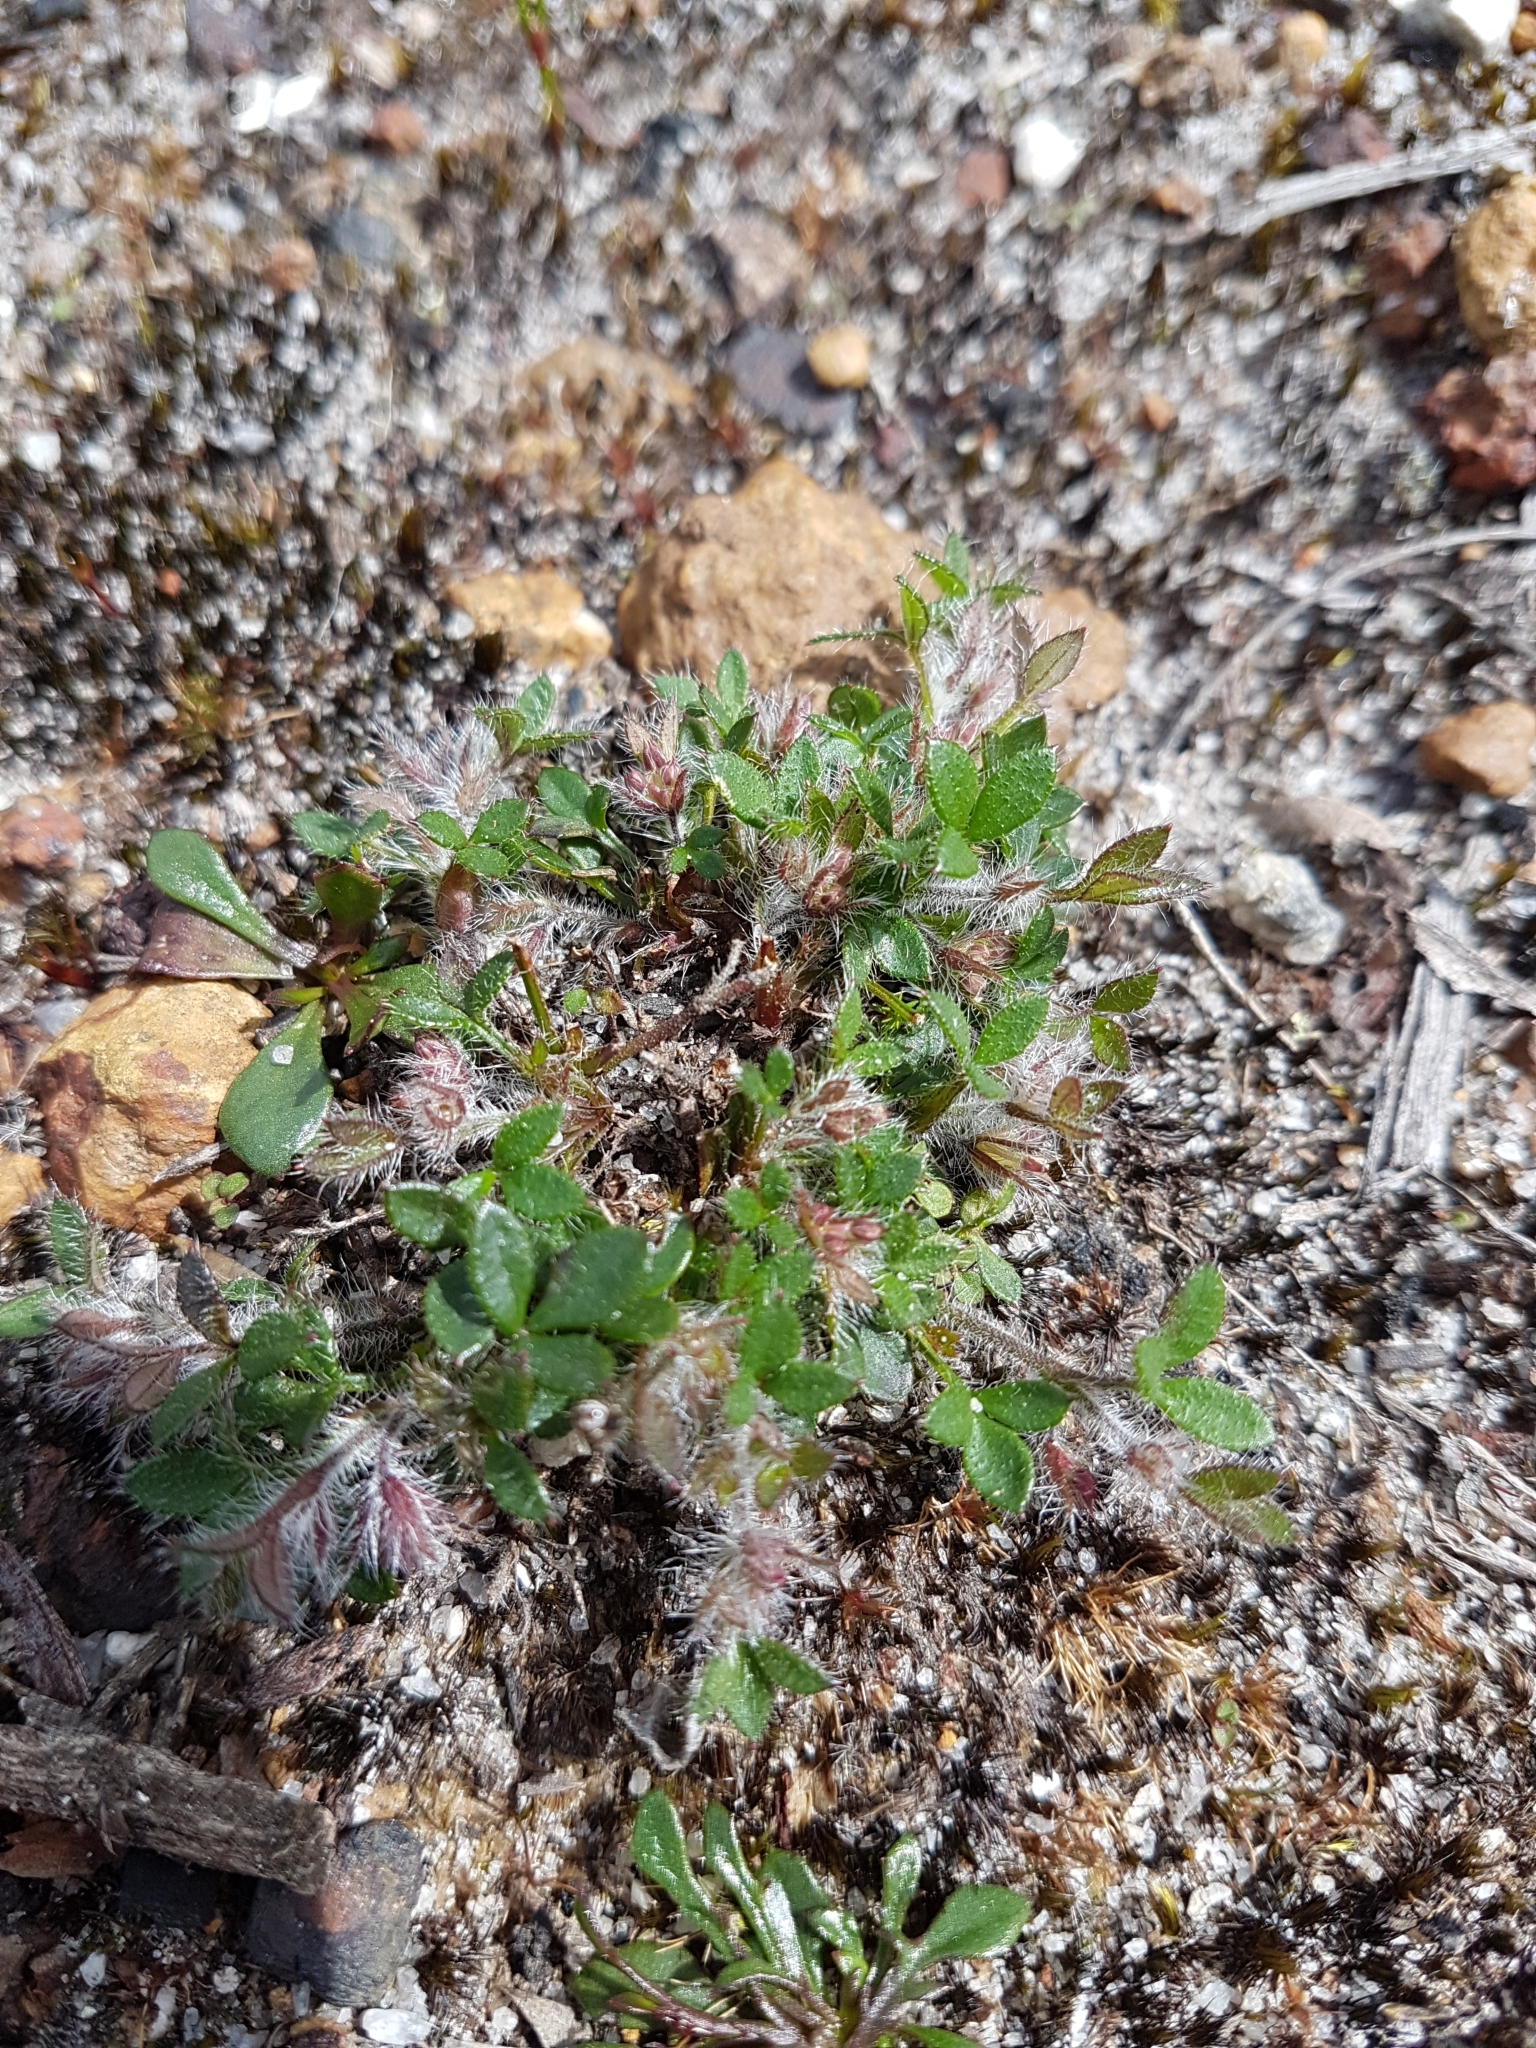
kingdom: Plantae
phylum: Tracheophyta
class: Magnoliopsida
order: Apiales
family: Apiaceae
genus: Xanthosia
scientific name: Xanthosia tasmanica
